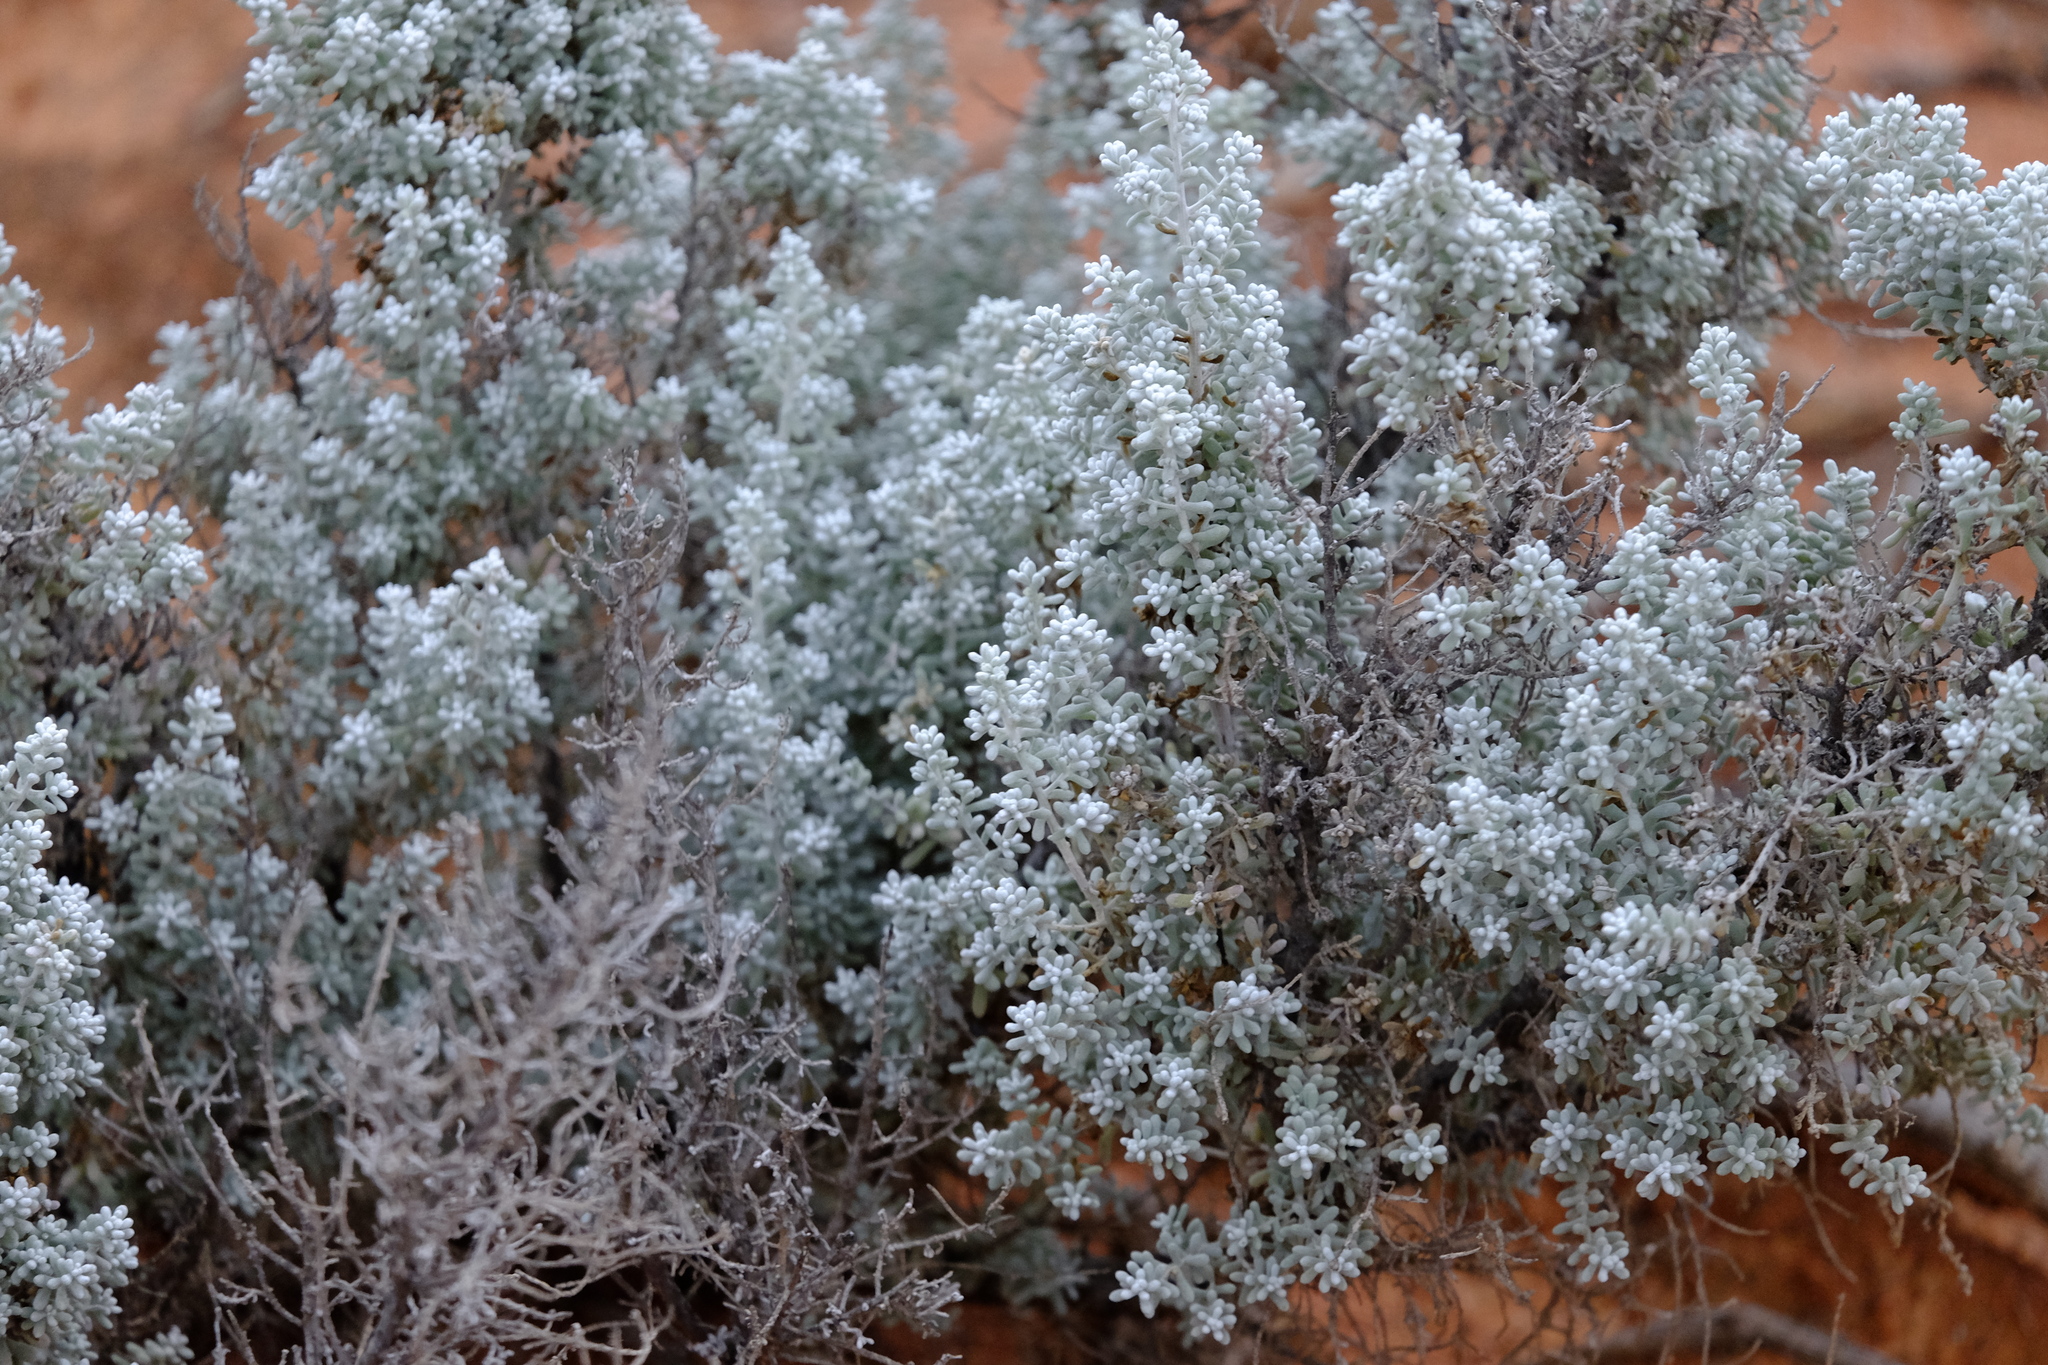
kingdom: Plantae
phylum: Tracheophyta
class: Magnoliopsida
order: Caryophyllales
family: Amaranthaceae
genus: Maireana
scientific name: Maireana sedifolia
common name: Hoary bluebush
